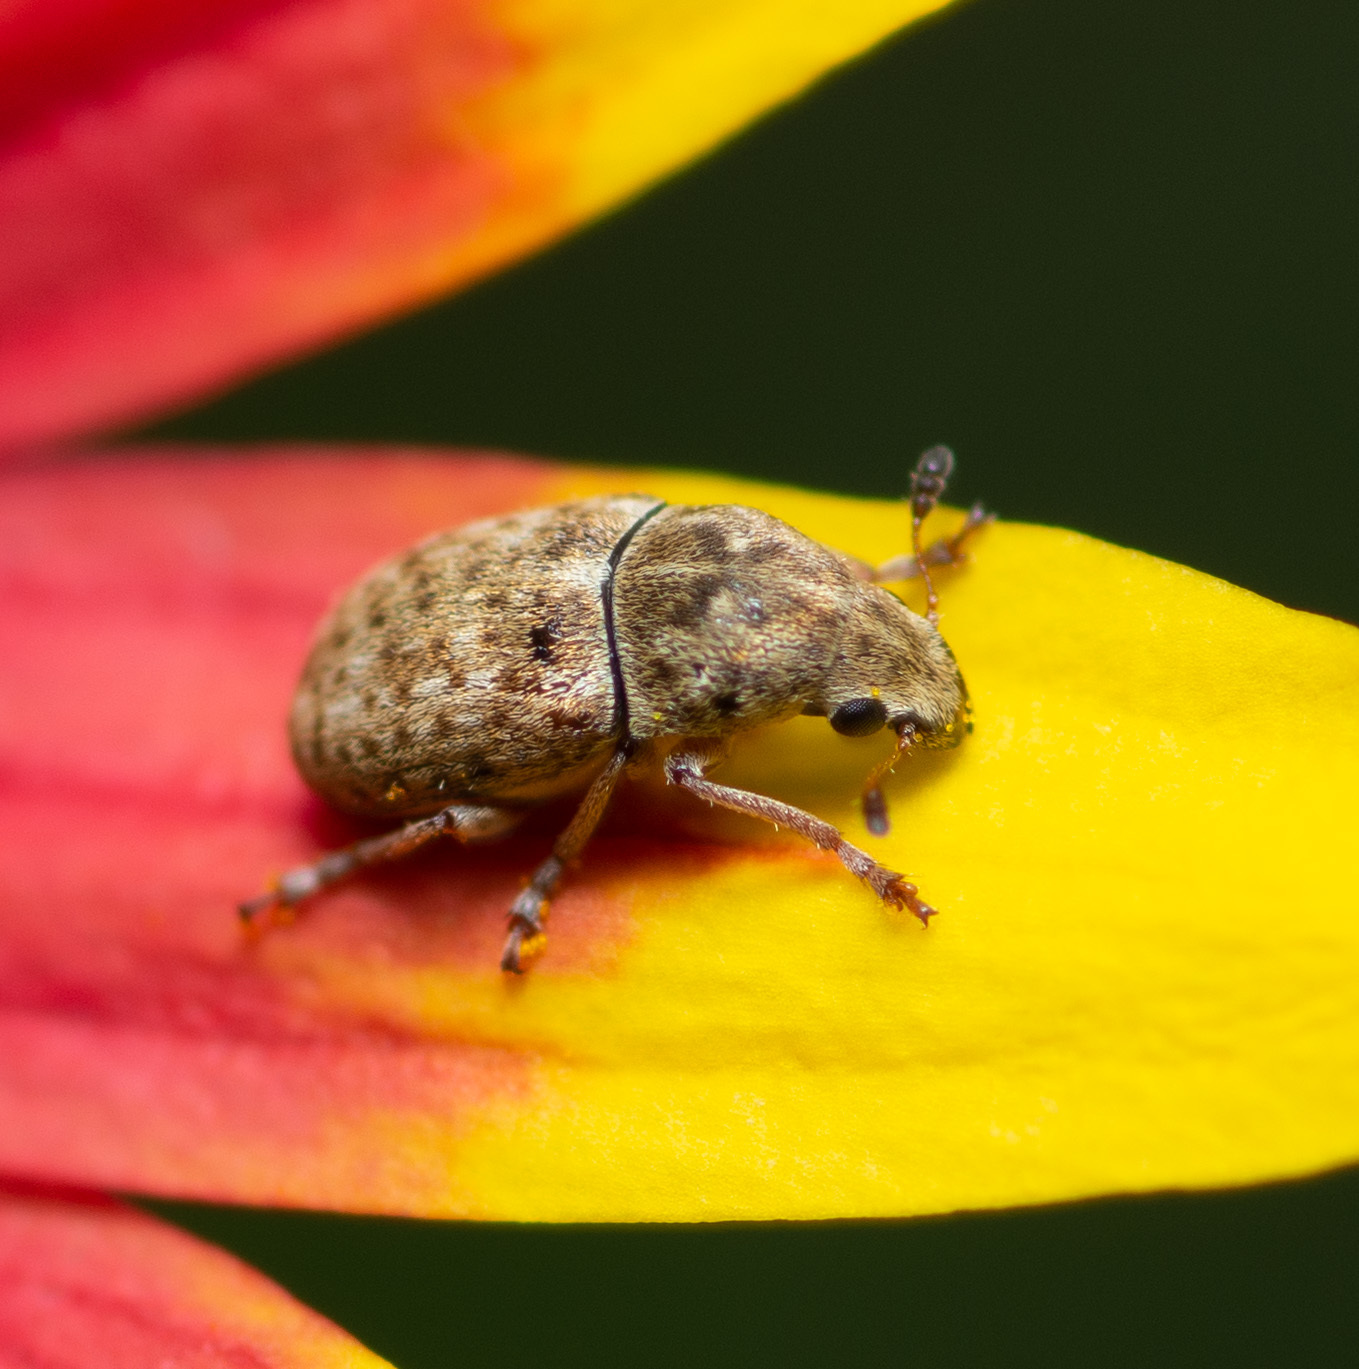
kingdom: Animalia
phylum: Arthropoda
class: Insecta
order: Coleoptera
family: Anthribidae
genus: Trigonorhinus
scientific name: Trigonorhinus limbatus
